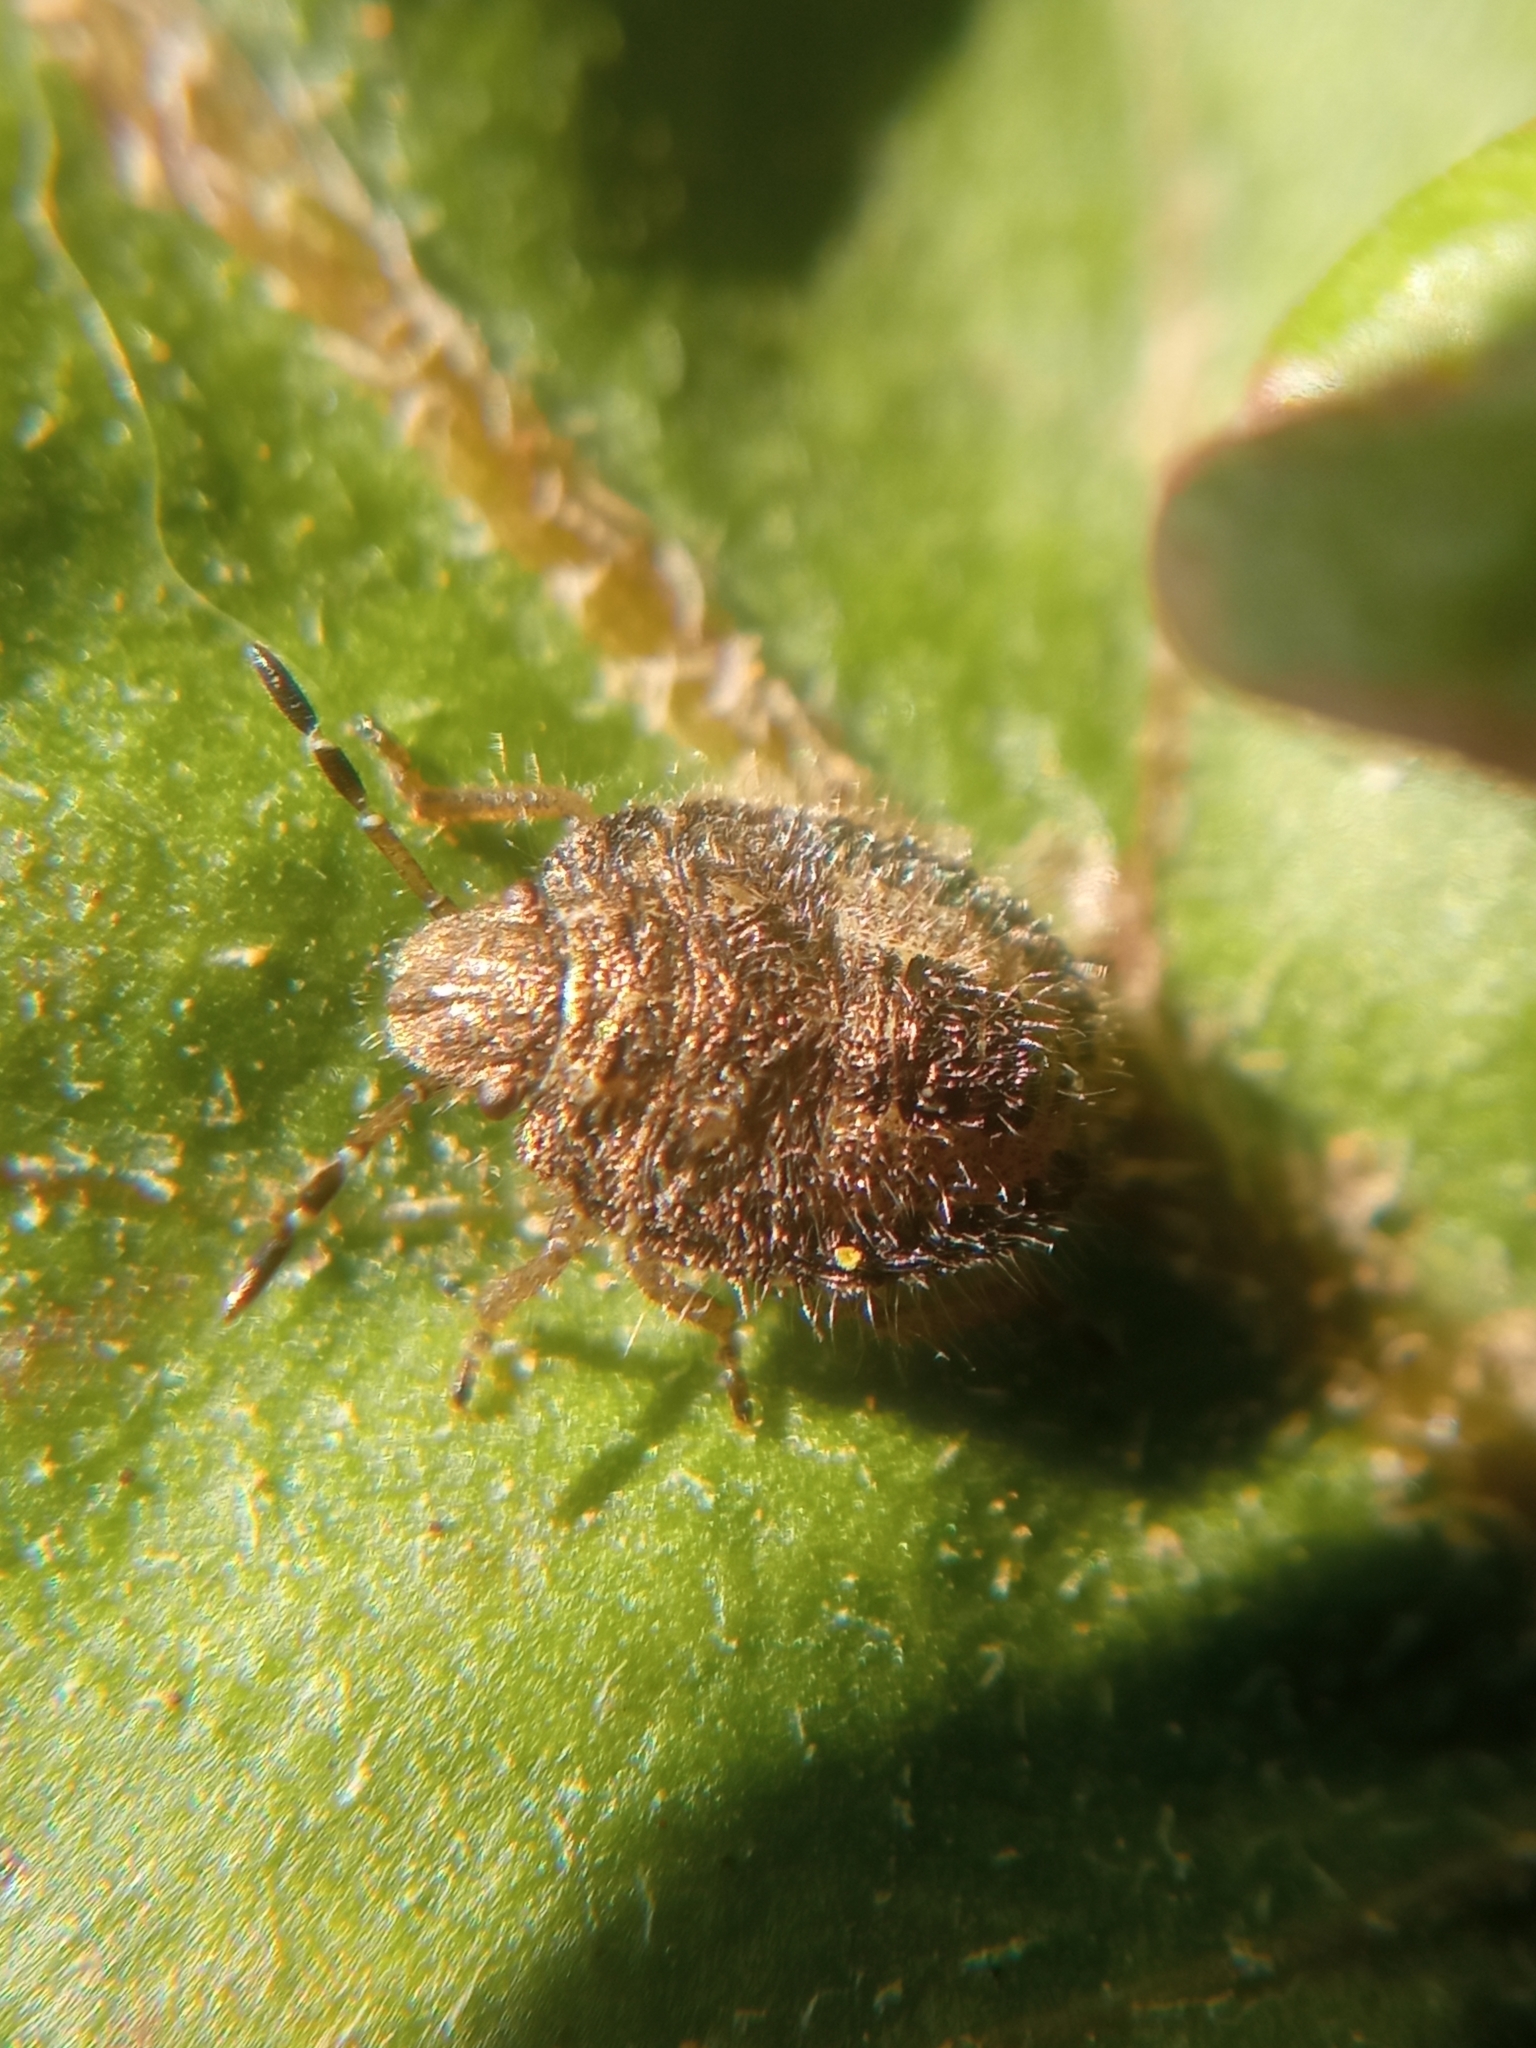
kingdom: Animalia
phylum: Arthropoda
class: Insecta
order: Hemiptera
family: Pentatomidae
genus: Dolycoris
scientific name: Dolycoris baccarum
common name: Sloe bug
